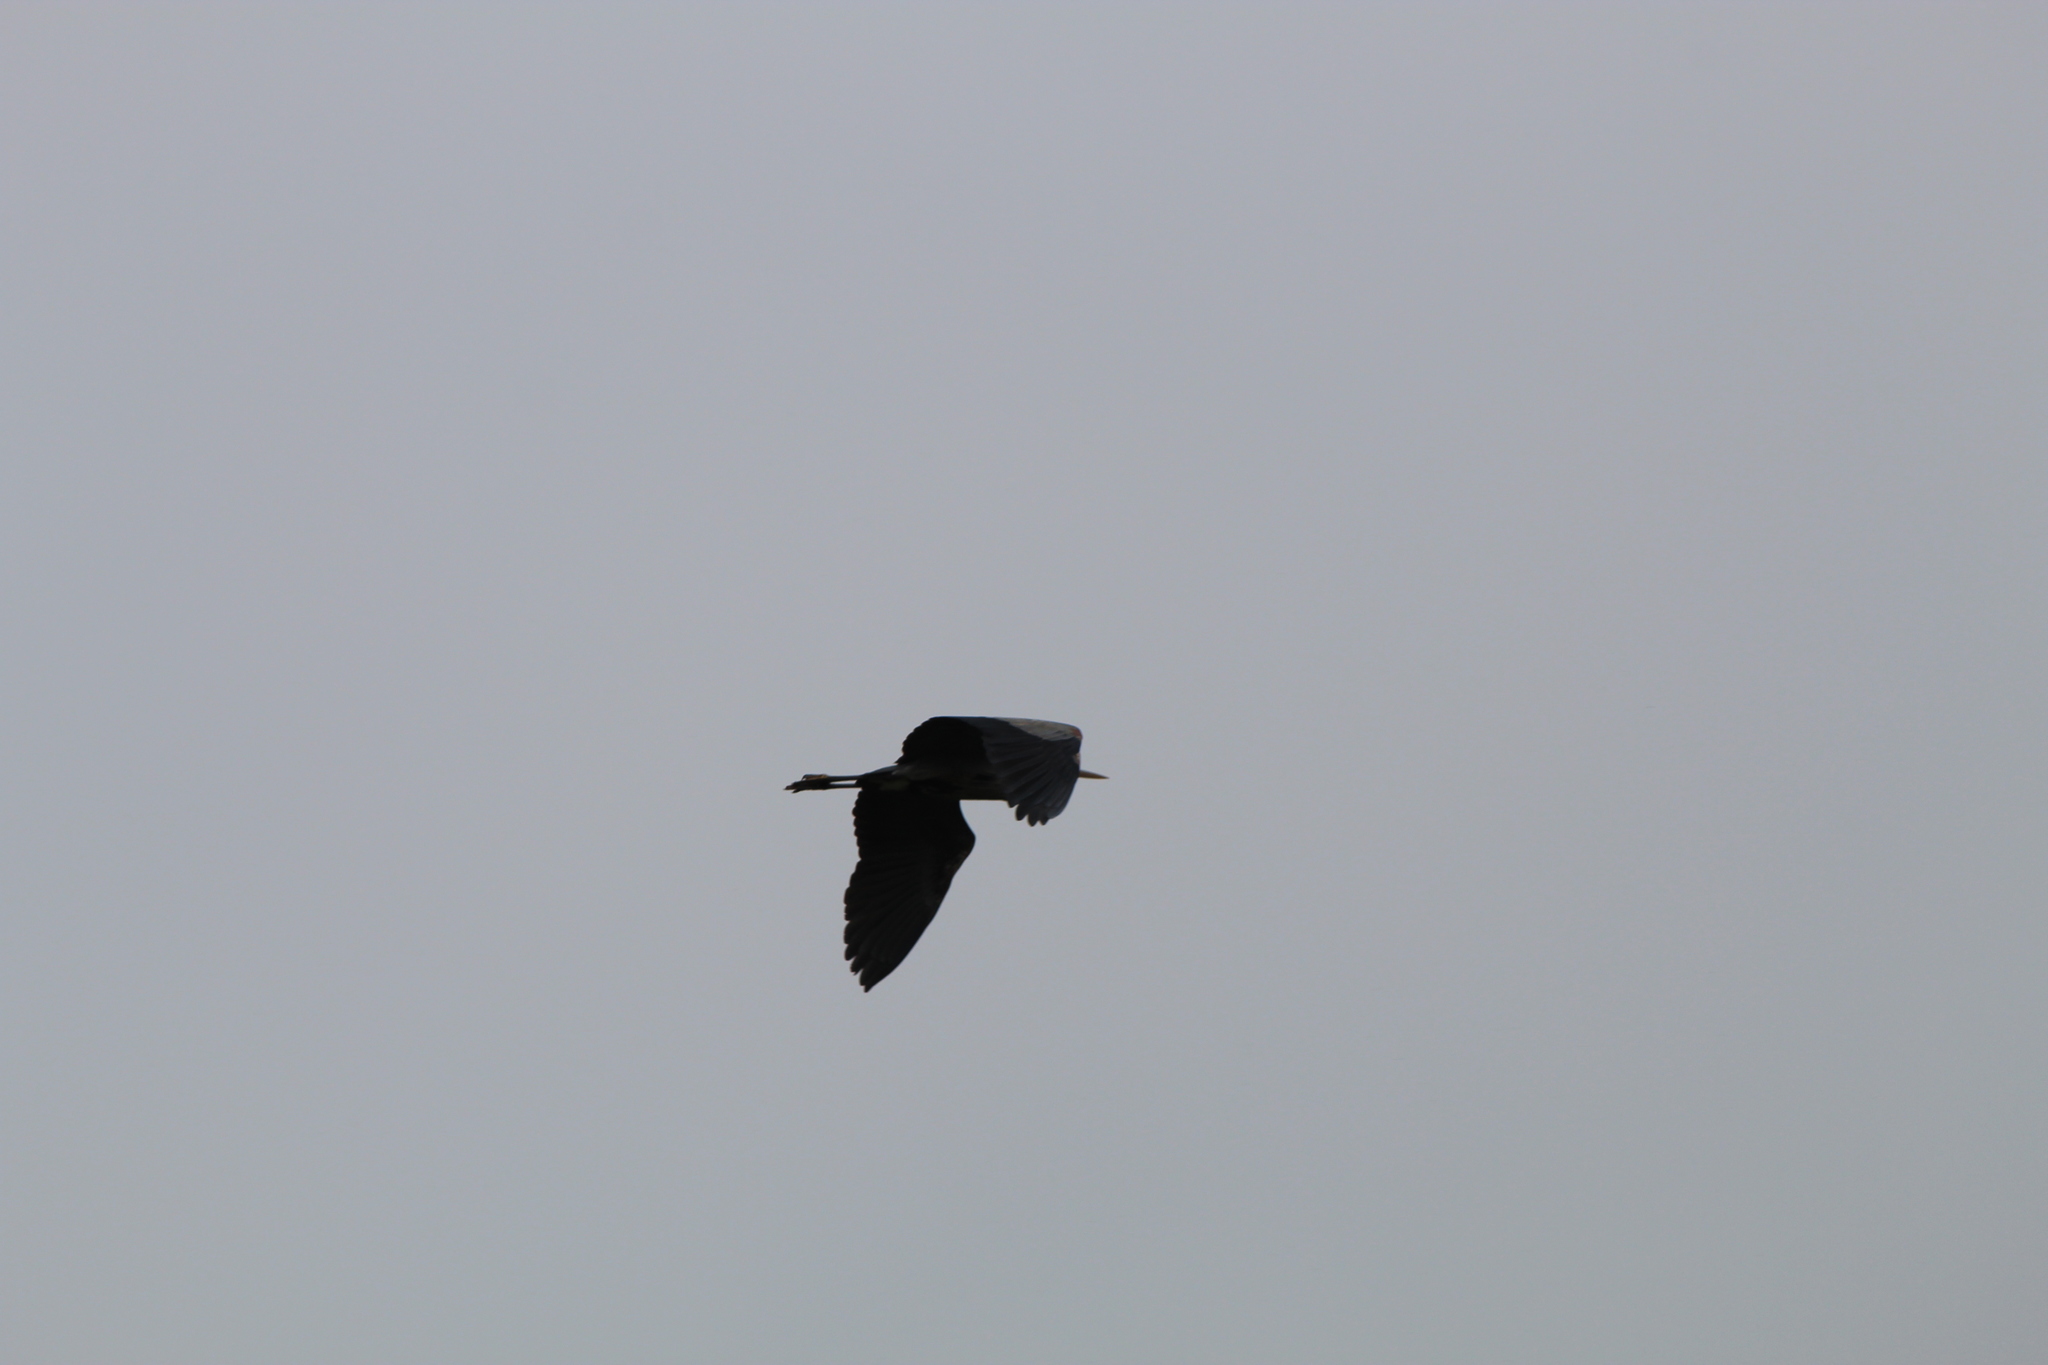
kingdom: Animalia
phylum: Chordata
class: Aves
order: Pelecaniformes
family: Ardeidae
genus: Ardea
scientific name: Ardea herodias
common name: Great blue heron
